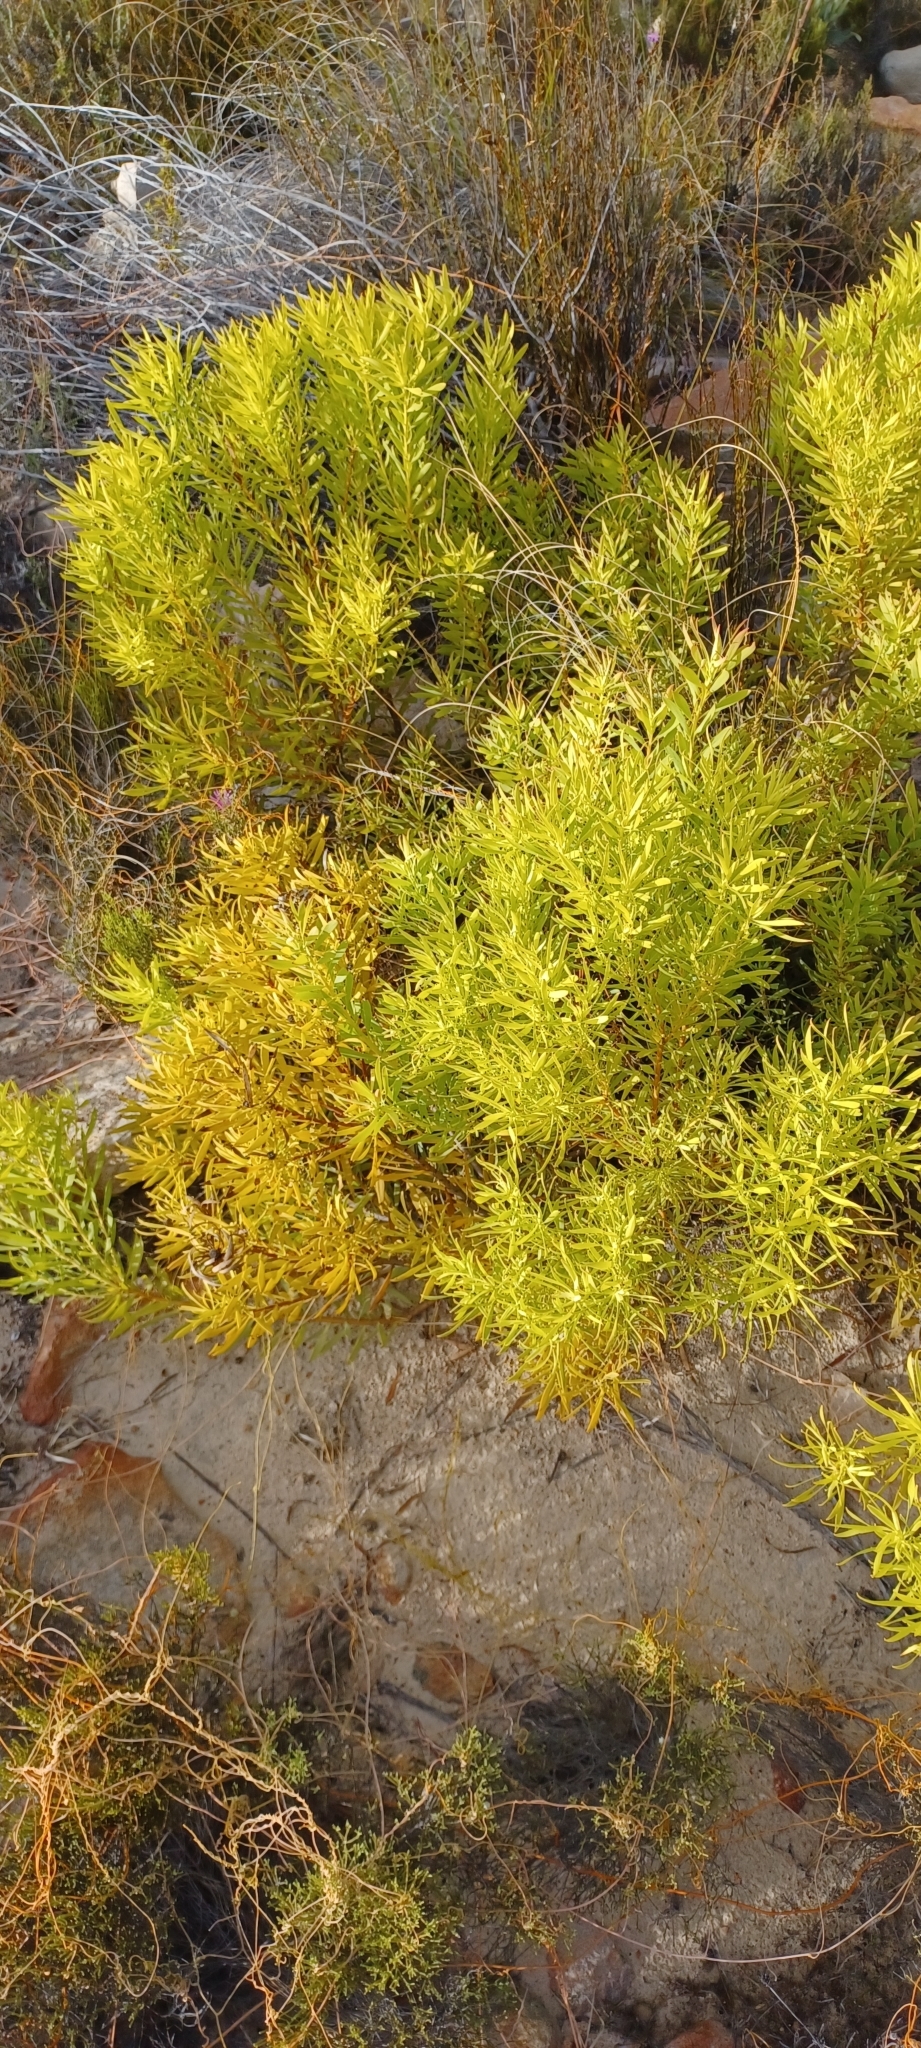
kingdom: Plantae
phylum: Tracheophyta
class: Magnoliopsida
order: Proteales
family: Proteaceae
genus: Leucadendron
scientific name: Leucadendron salignum
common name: Common sunshine conebush
